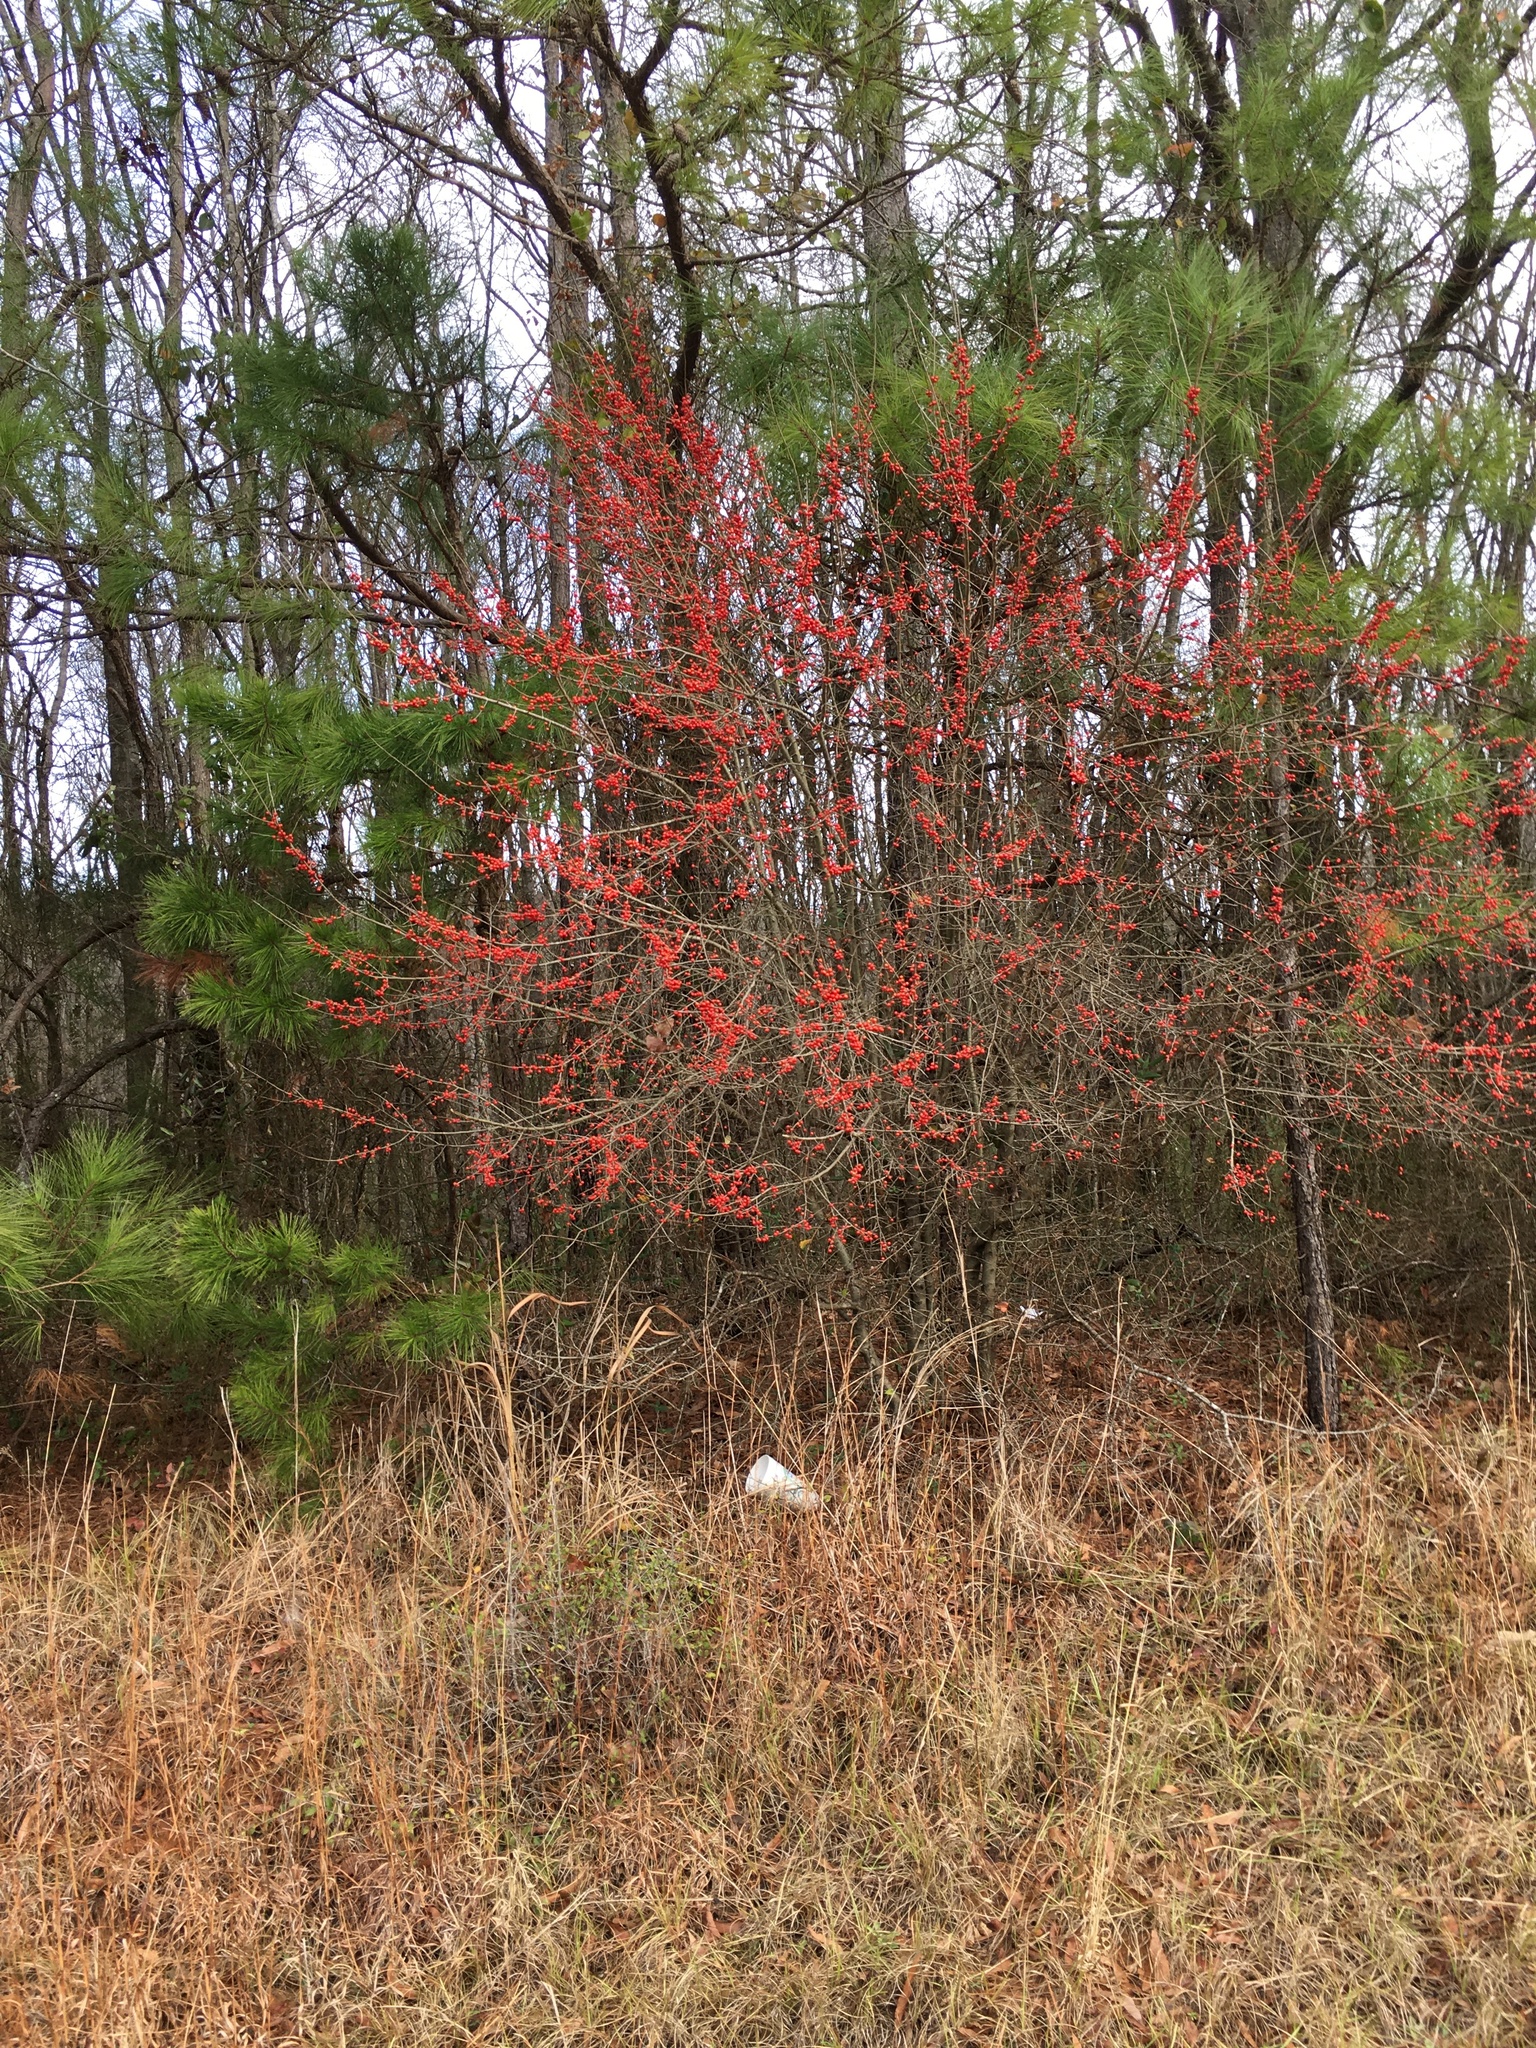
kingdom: Plantae
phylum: Tracheophyta
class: Magnoliopsida
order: Aquifoliales
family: Aquifoliaceae
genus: Ilex
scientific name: Ilex verticillata
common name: Virginia winterberry
